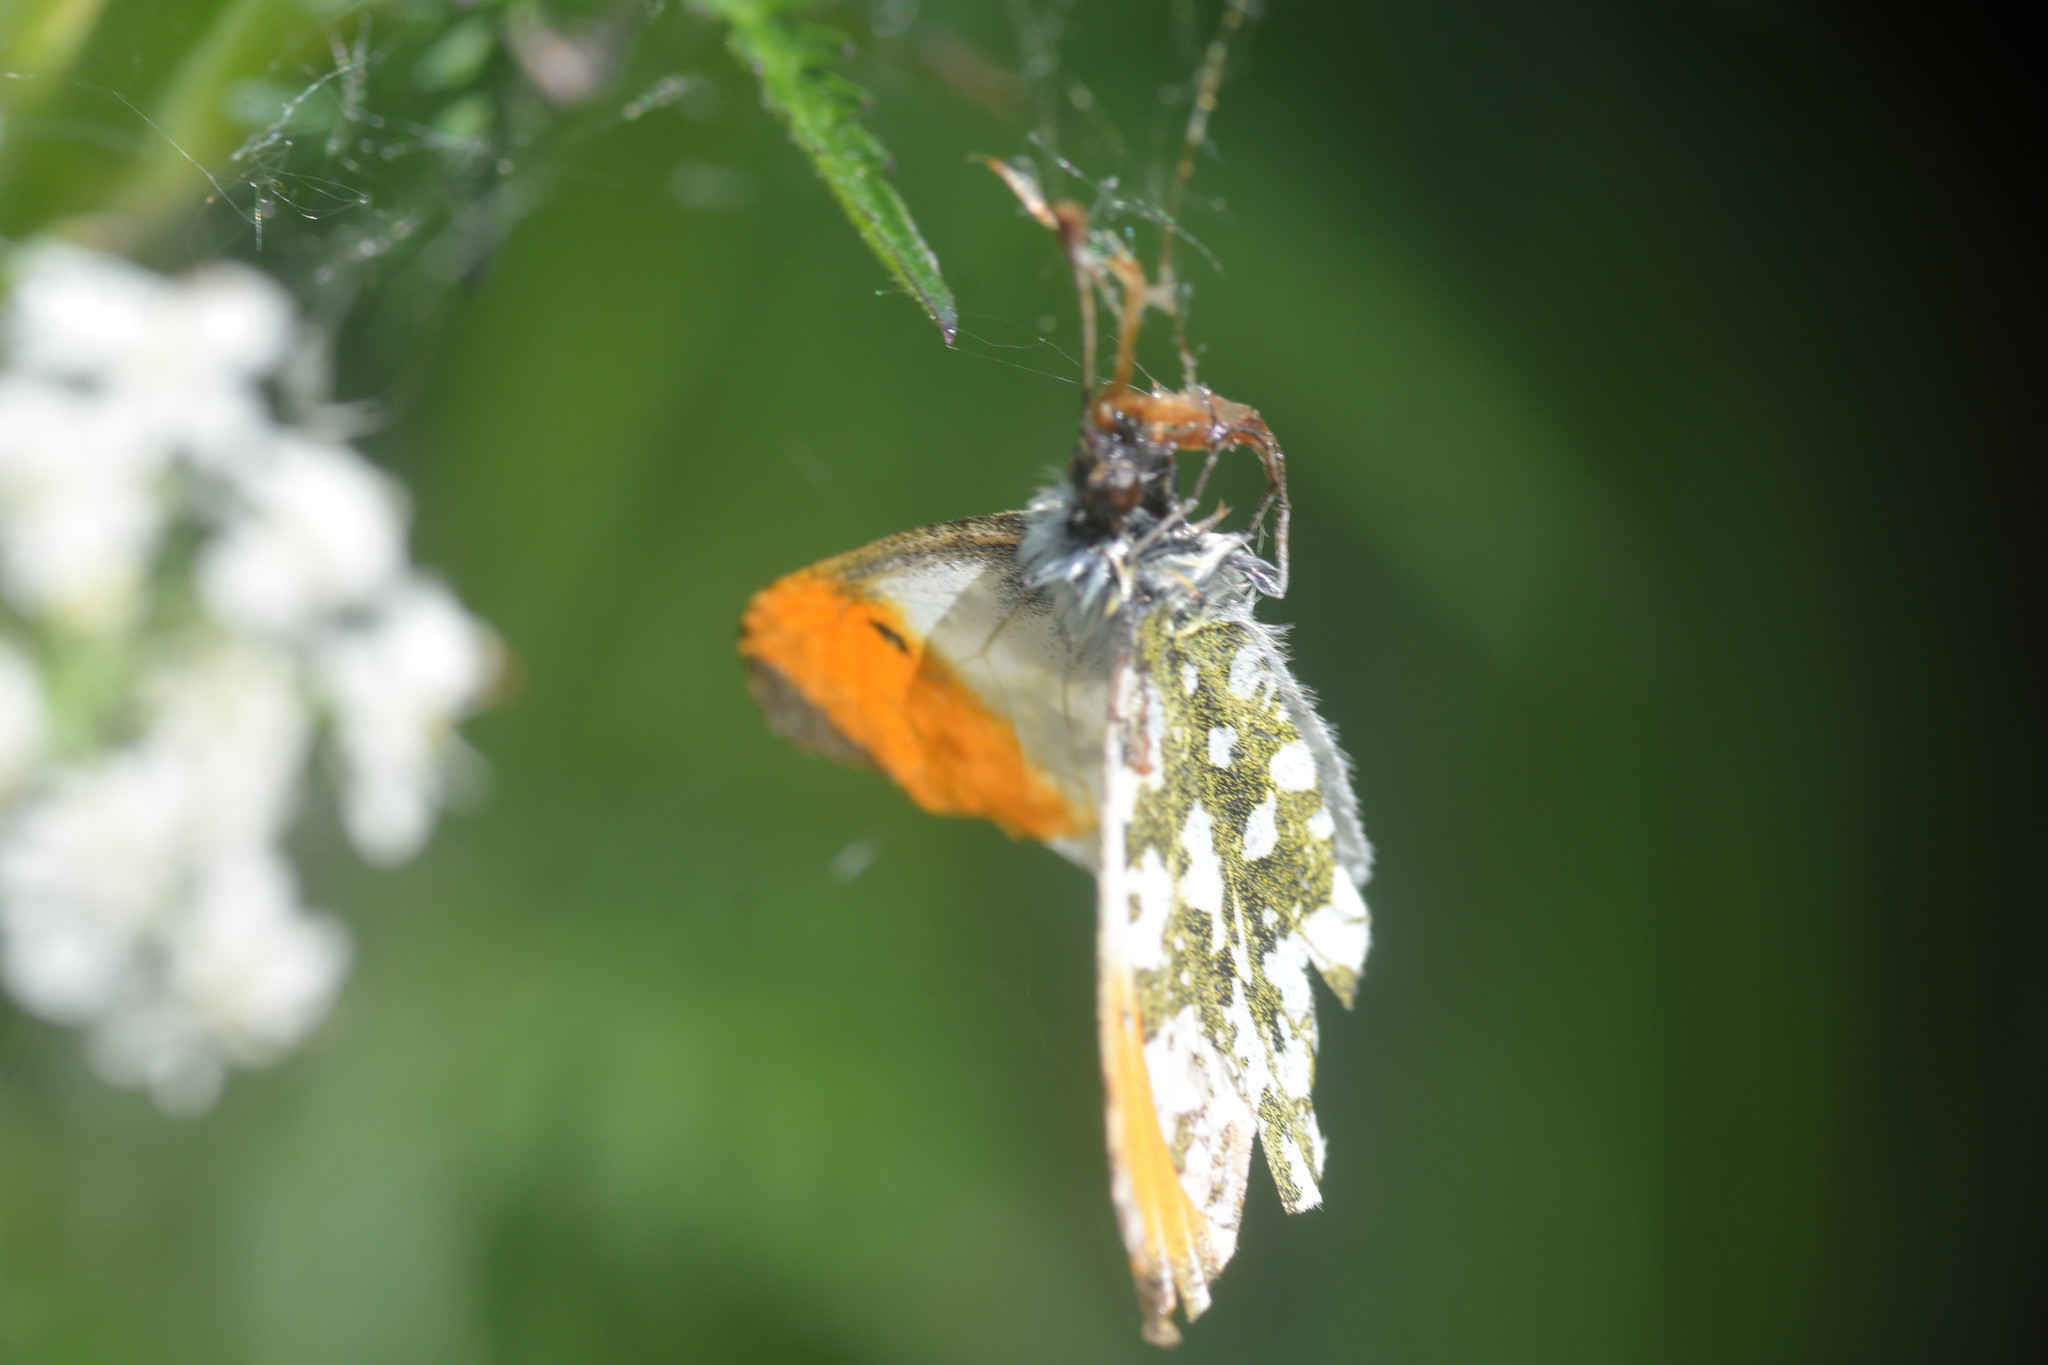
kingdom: Animalia
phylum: Arthropoda
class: Insecta
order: Lepidoptera
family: Pieridae
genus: Anthocharis
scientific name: Anthocharis cardamines
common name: Orange-tip
